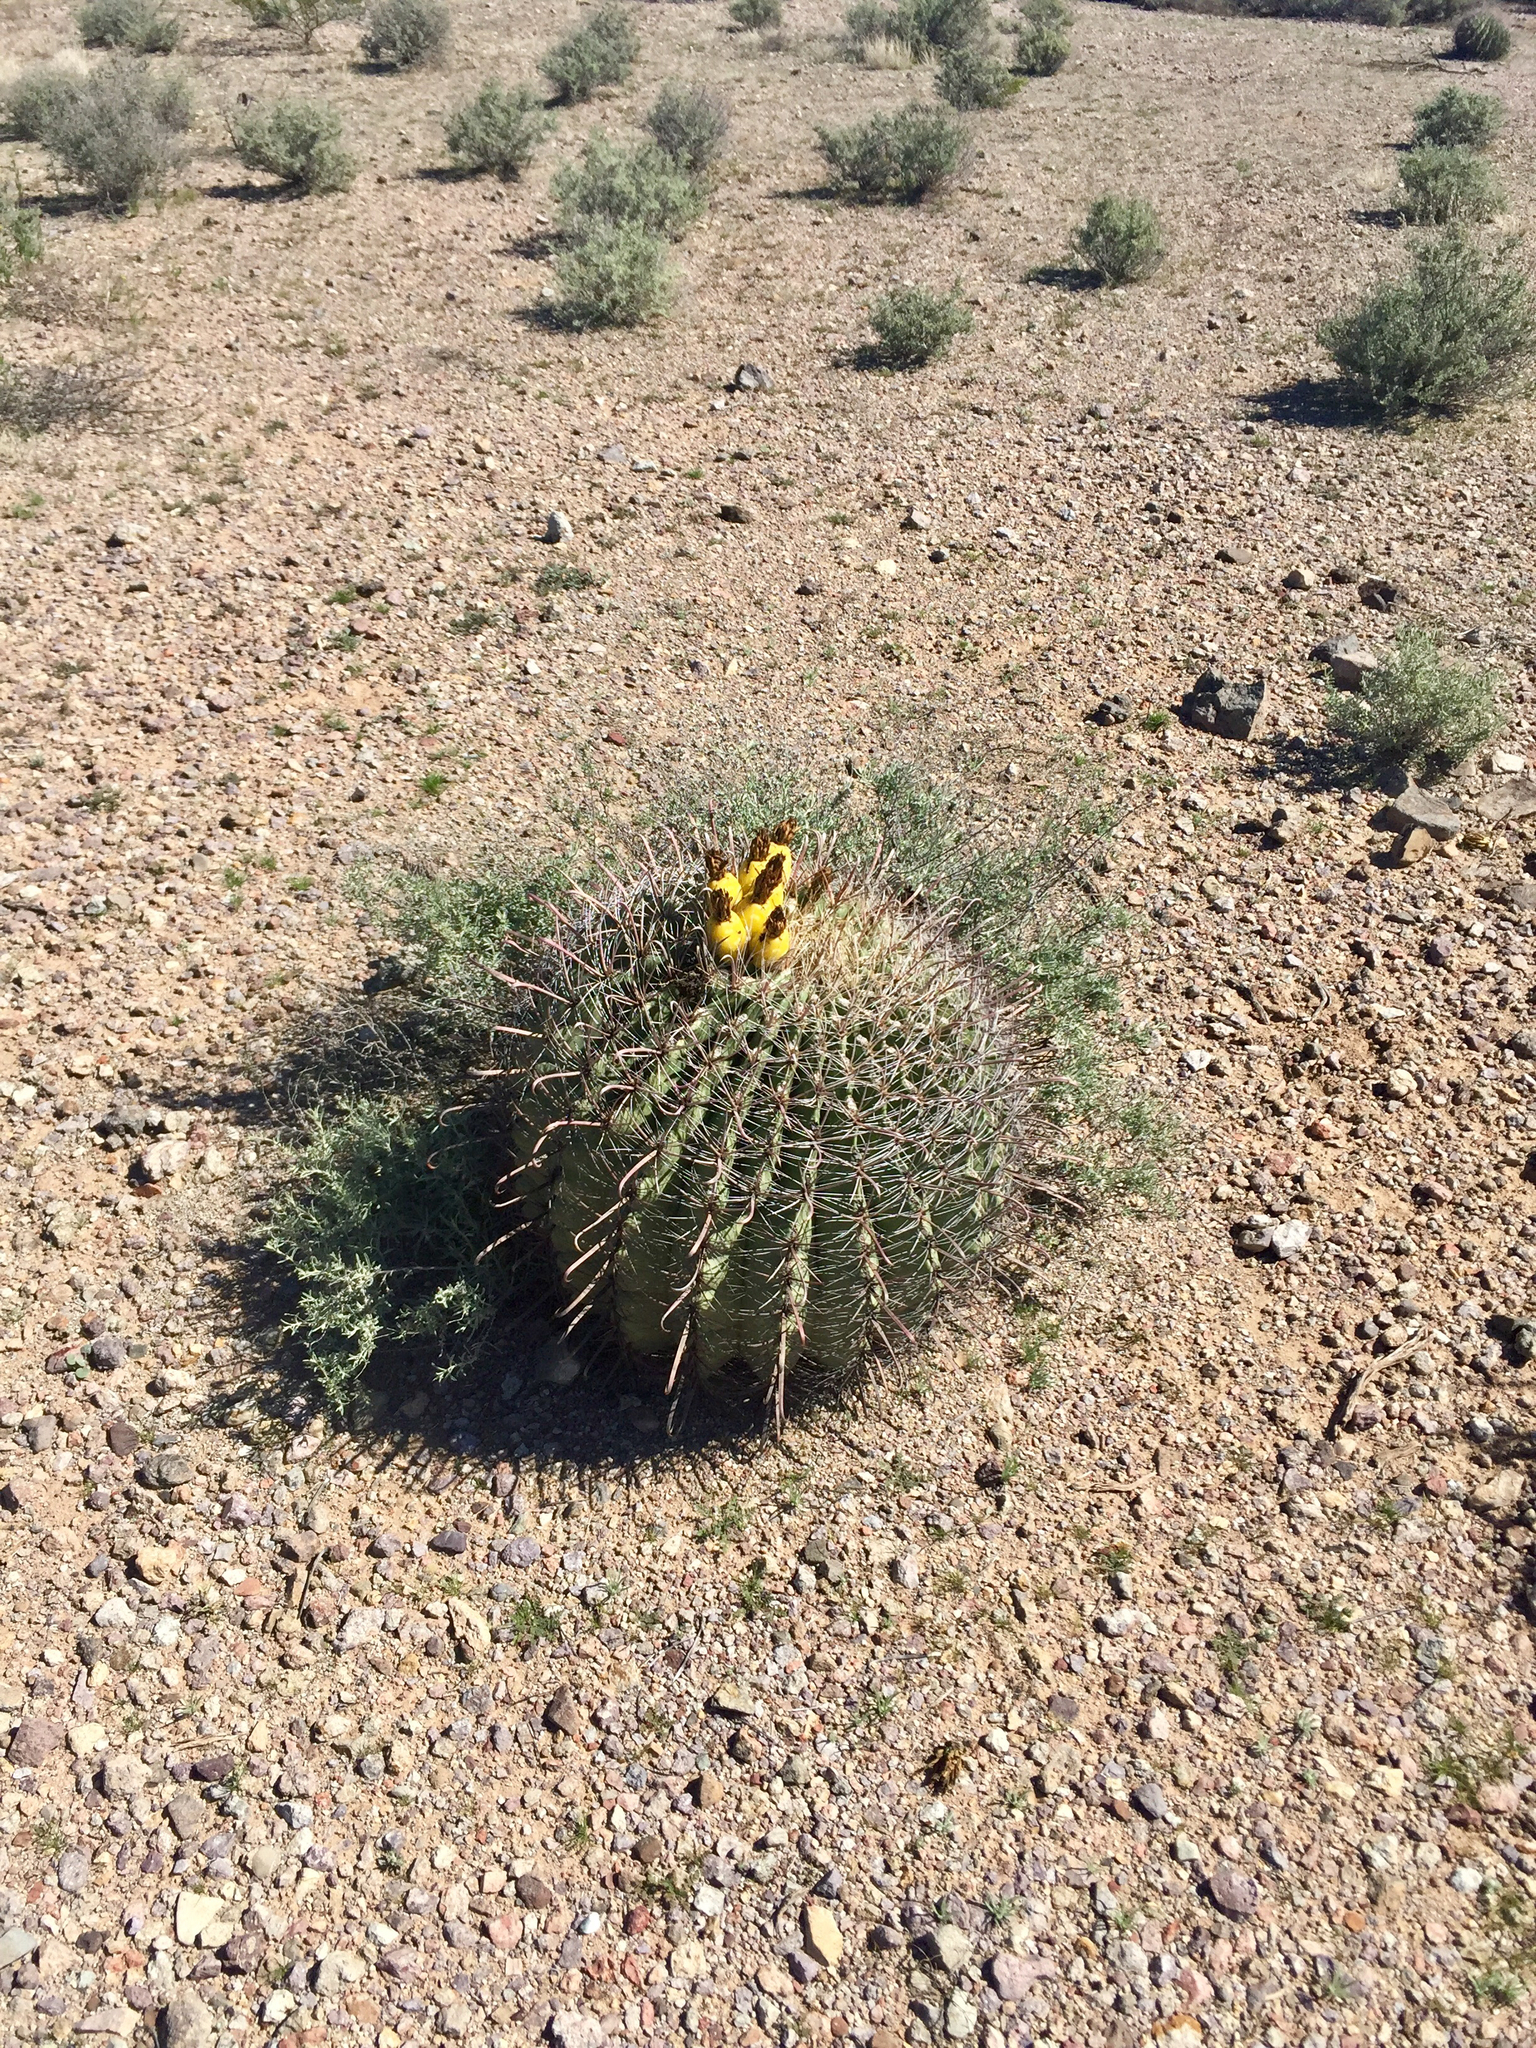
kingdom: Plantae
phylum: Tracheophyta
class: Magnoliopsida
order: Caryophyllales
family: Cactaceae
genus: Ferocactus
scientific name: Ferocactus wislizeni
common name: Candy barrel cactus
